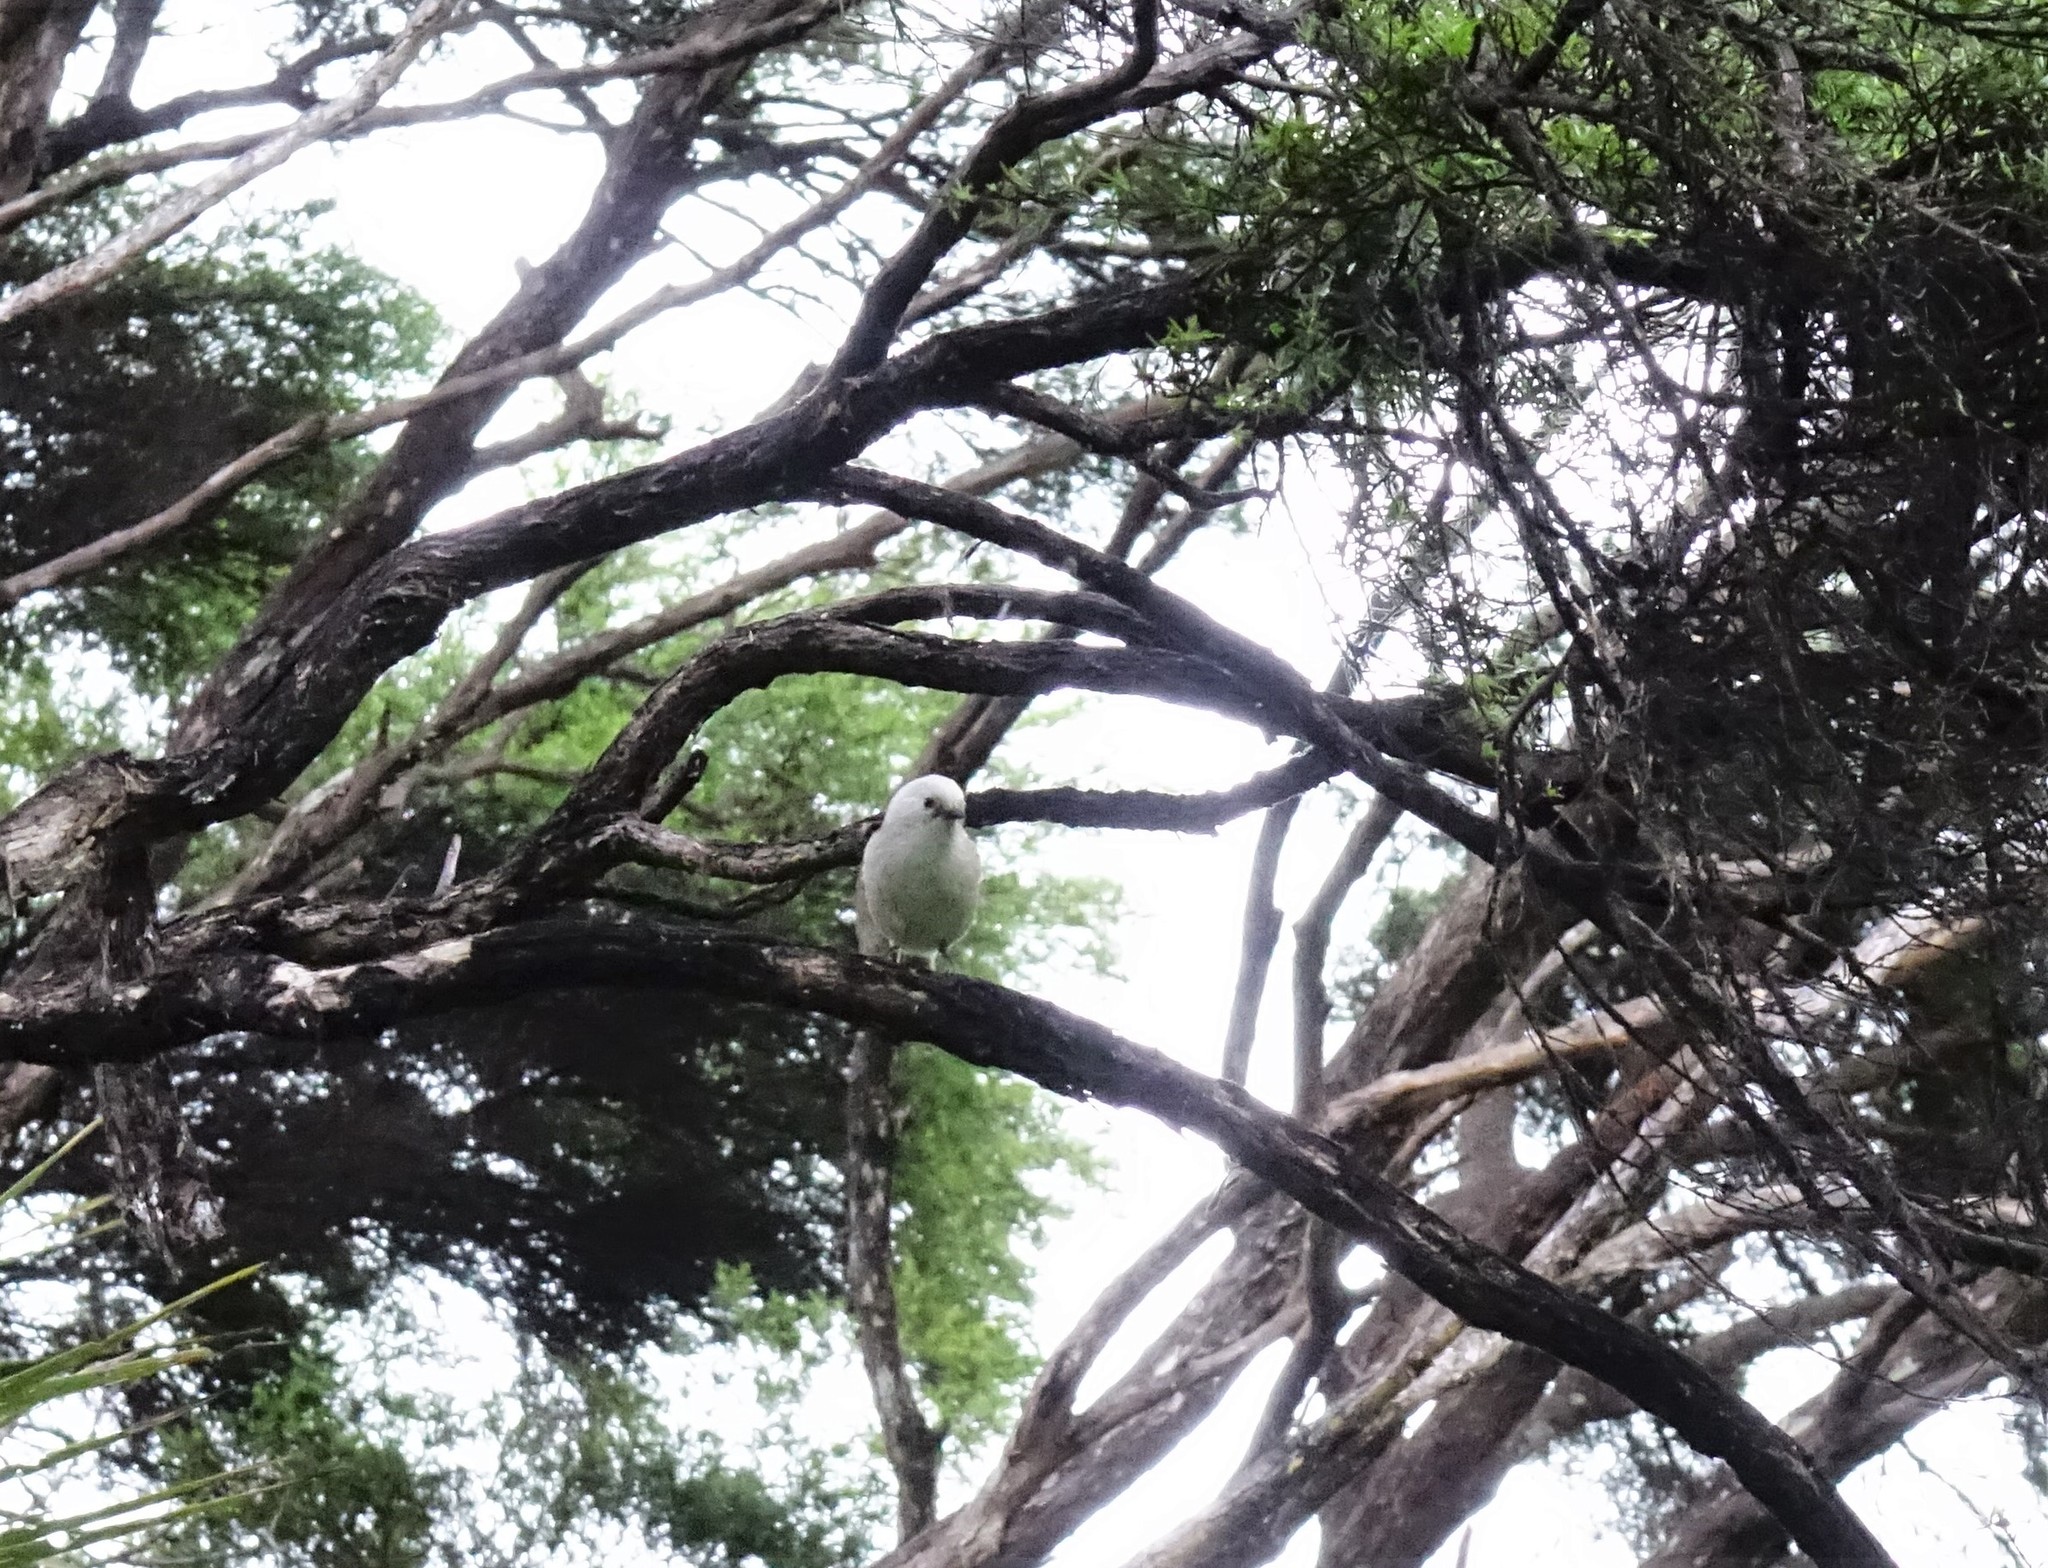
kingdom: Animalia
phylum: Chordata
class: Aves
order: Passeriformes
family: Acanthizidae
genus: Mohoua
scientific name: Mohoua albicilla
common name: Whitehead
